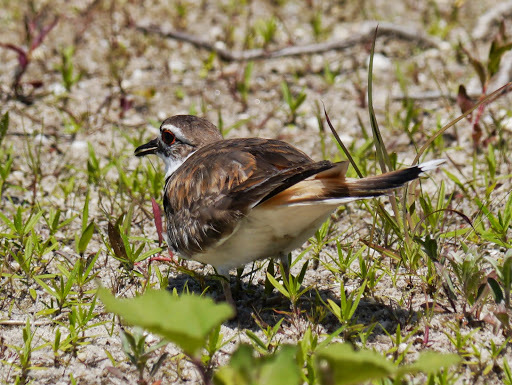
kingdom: Animalia
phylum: Chordata
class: Aves
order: Charadriiformes
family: Charadriidae
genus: Charadrius
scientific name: Charadrius vociferus
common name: Killdeer
